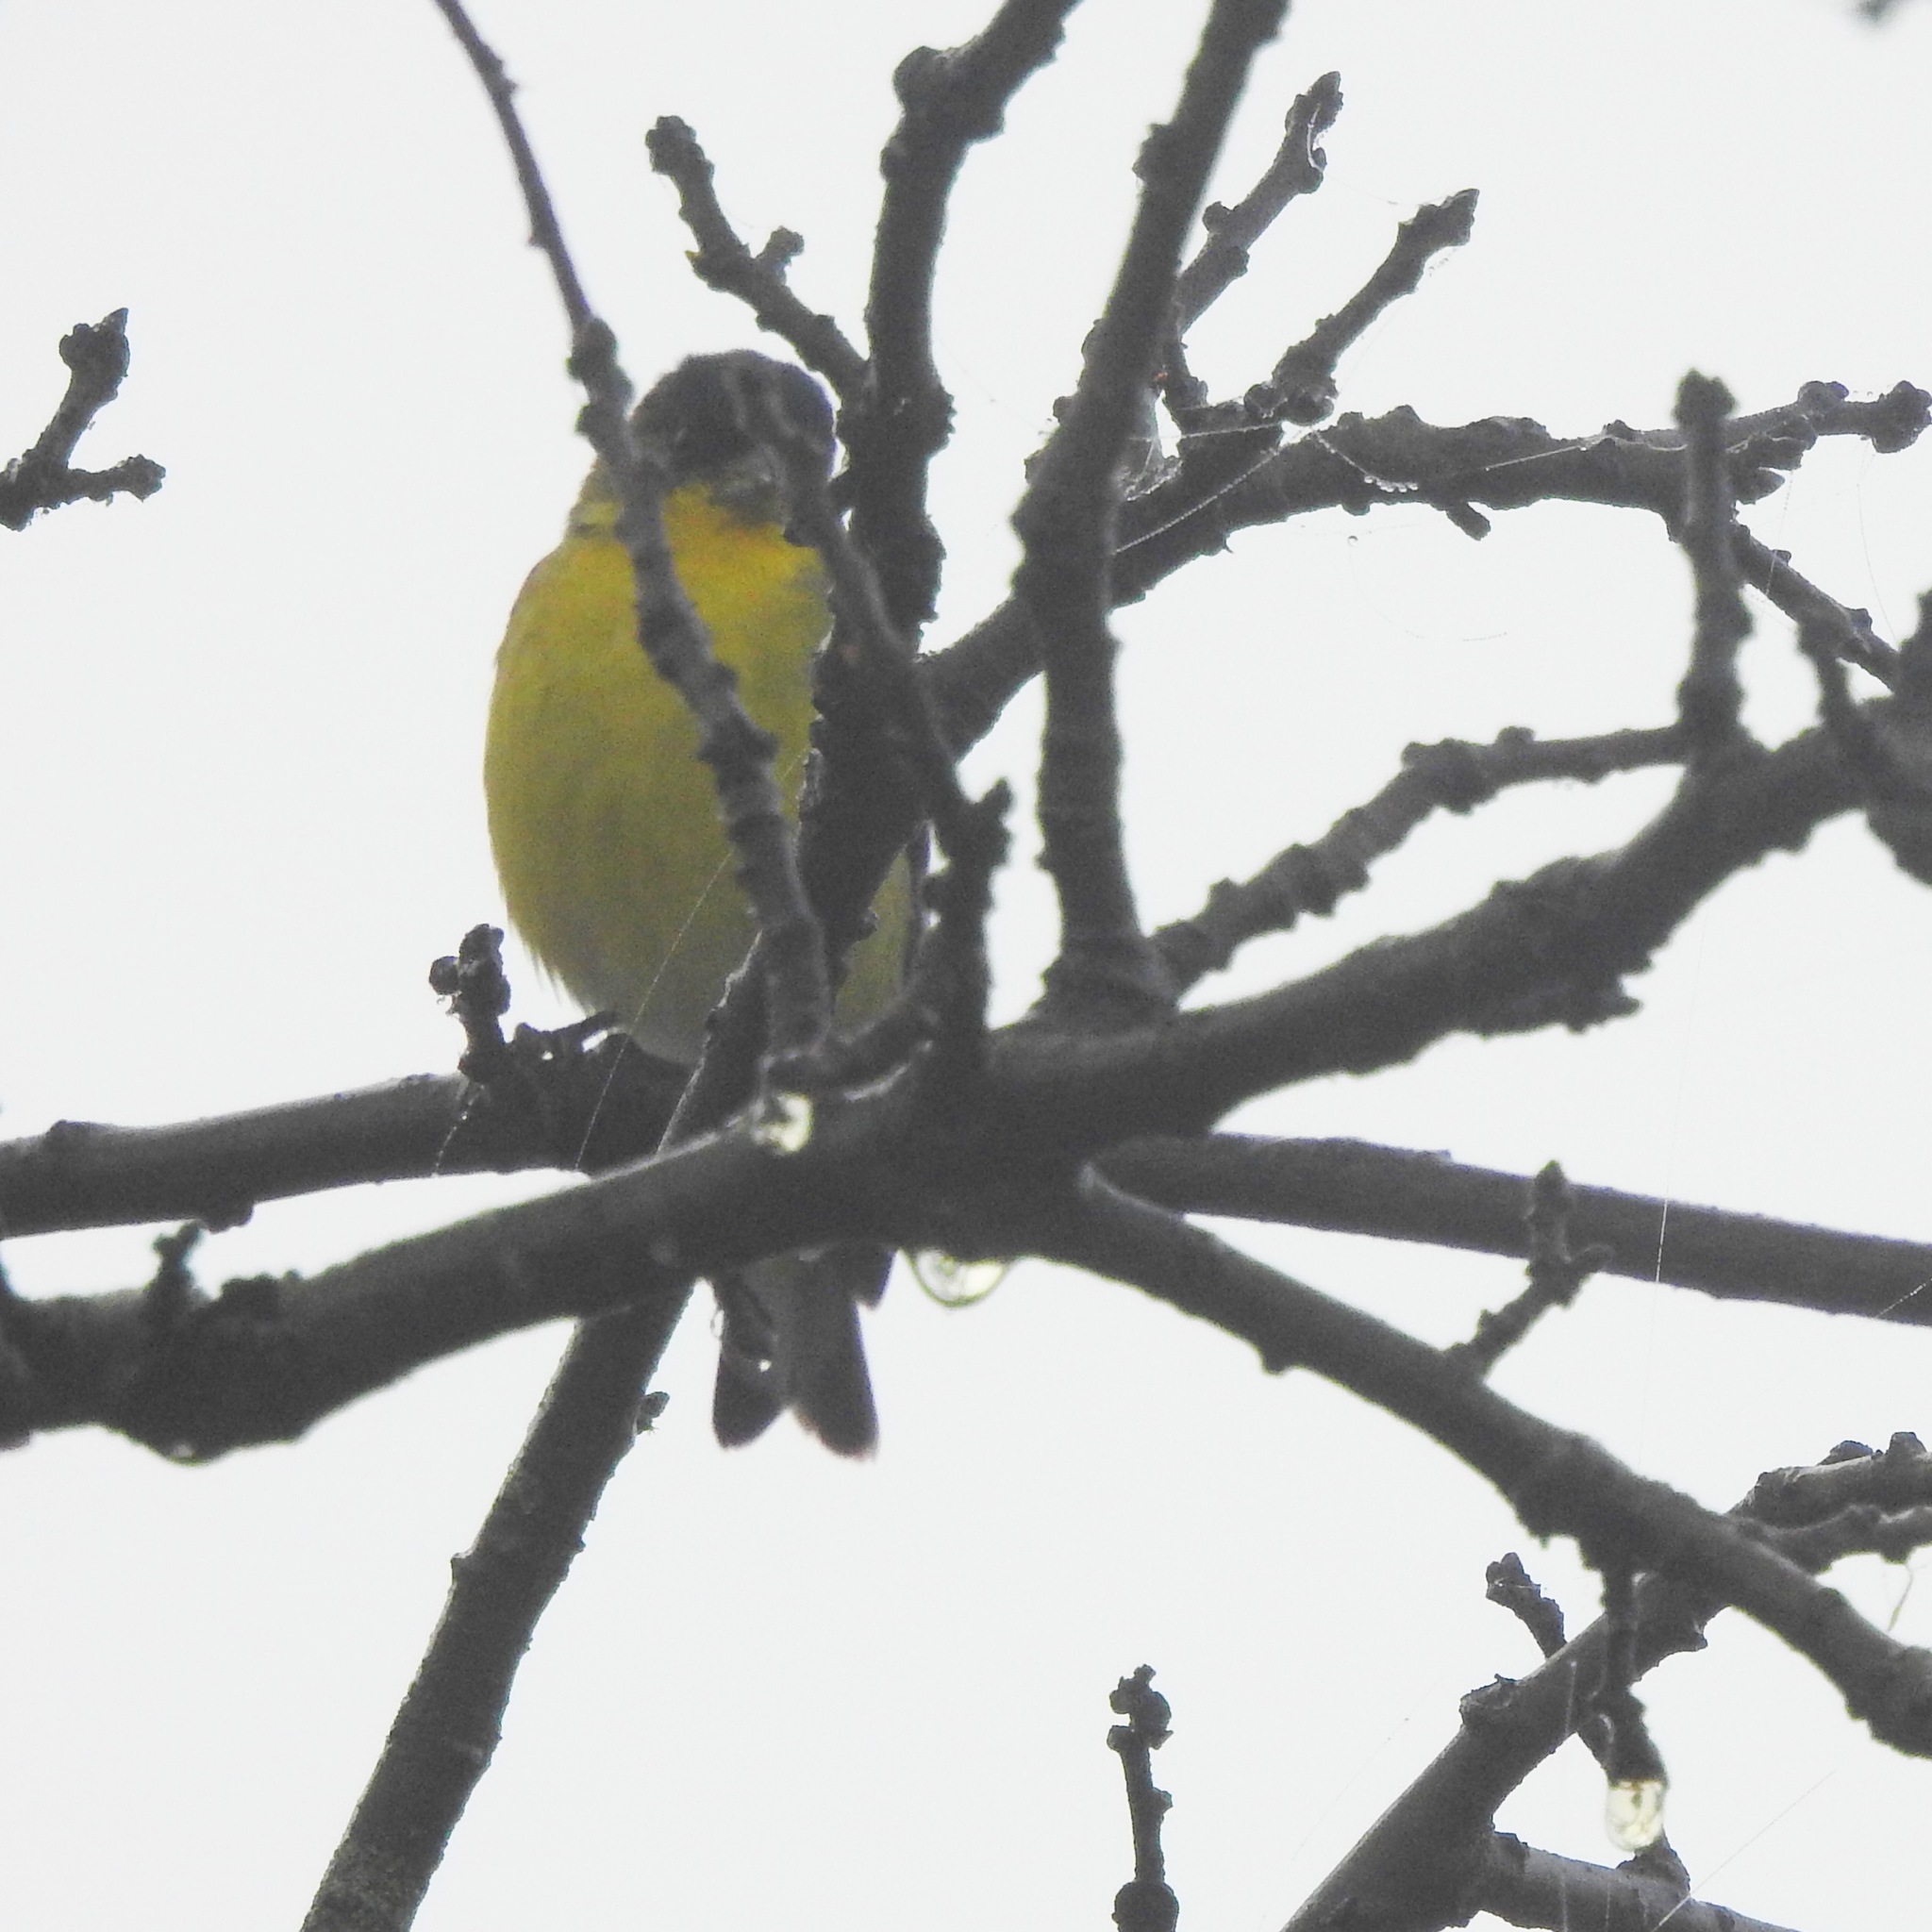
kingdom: Animalia
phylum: Chordata
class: Aves
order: Passeriformes
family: Fringillidae
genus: Spinus
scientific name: Spinus psaltria
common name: Lesser goldfinch
